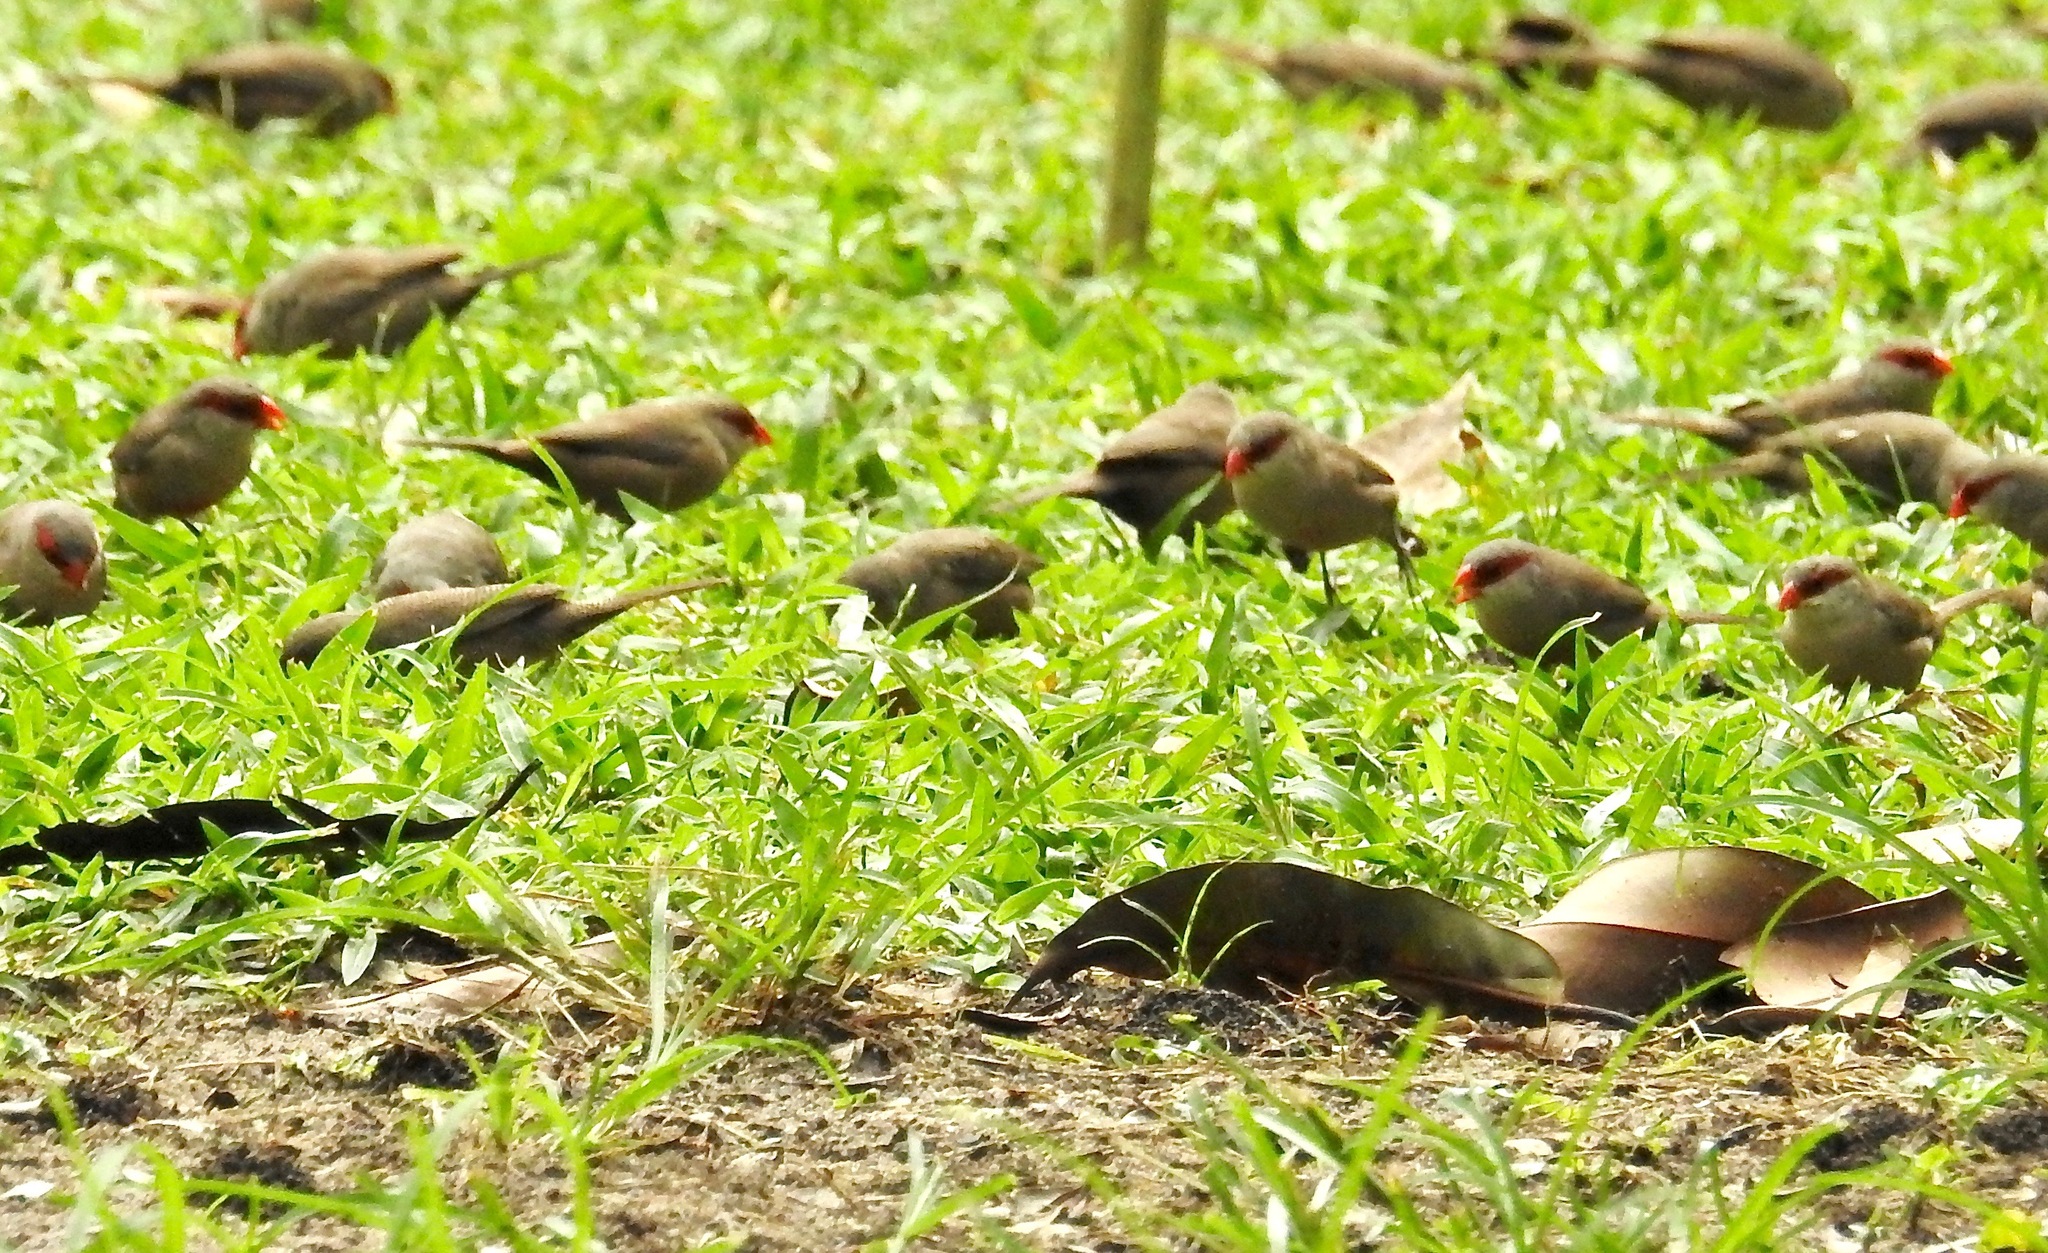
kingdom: Animalia
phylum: Chordata
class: Aves
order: Passeriformes
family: Estrildidae
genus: Estrilda
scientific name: Estrilda astrild
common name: Common waxbill
